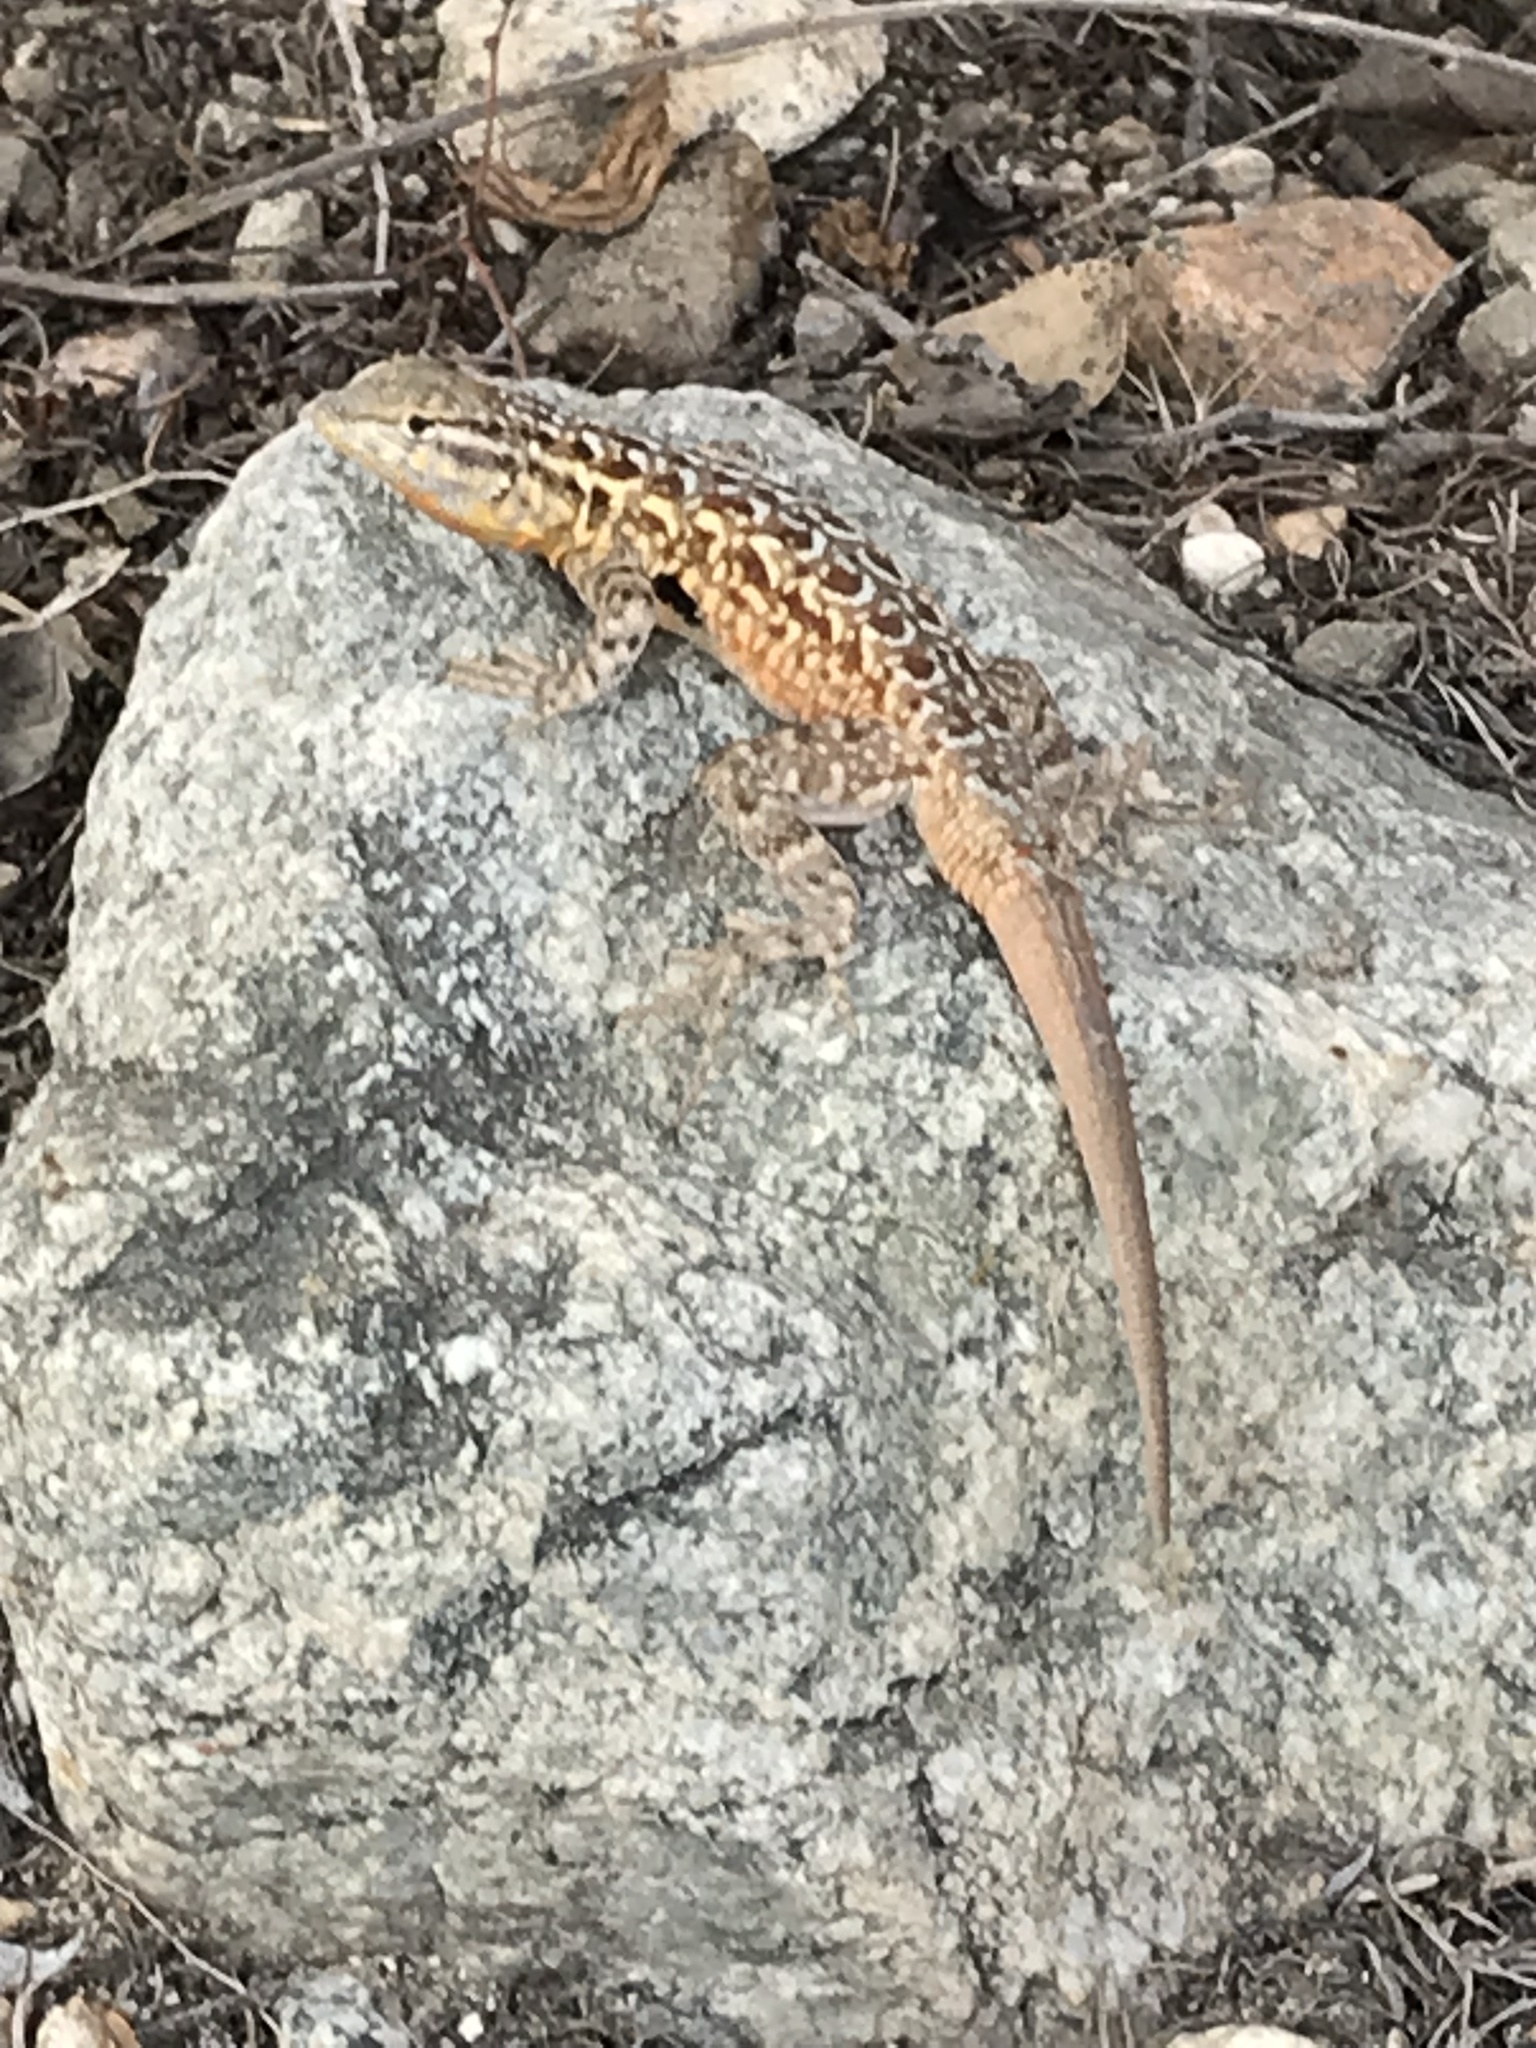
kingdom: Animalia
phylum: Chordata
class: Squamata
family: Phrynosomatidae
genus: Uta
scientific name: Uta stansburiana
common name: Side-blotched lizard
